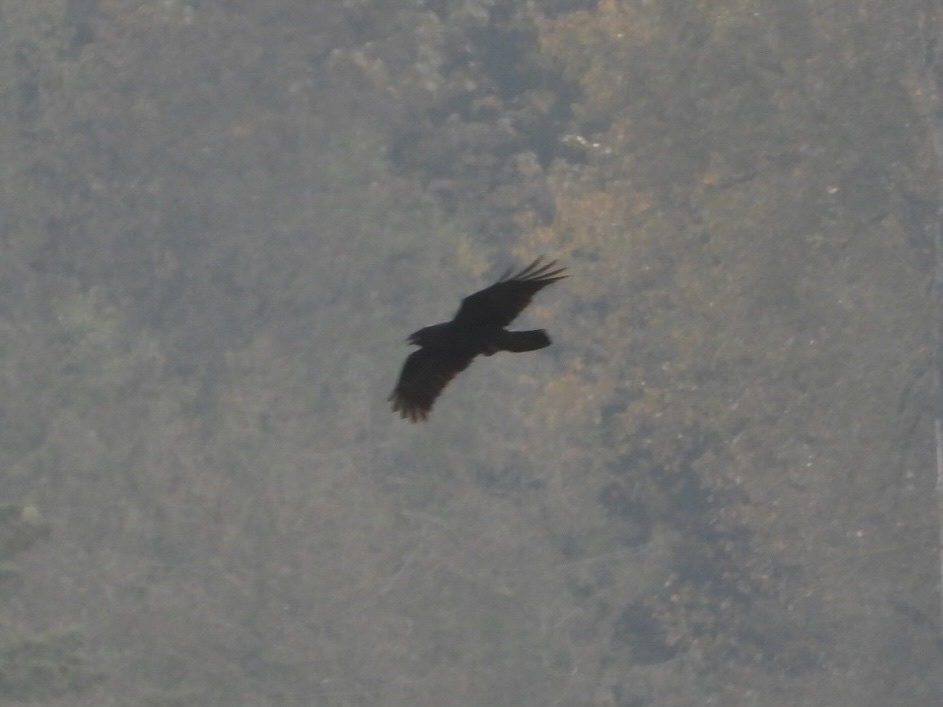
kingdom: Animalia
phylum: Chordata
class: Aves
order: Passeriformes
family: Corvidae
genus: Corvus
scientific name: Corvus corax
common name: Common raven
